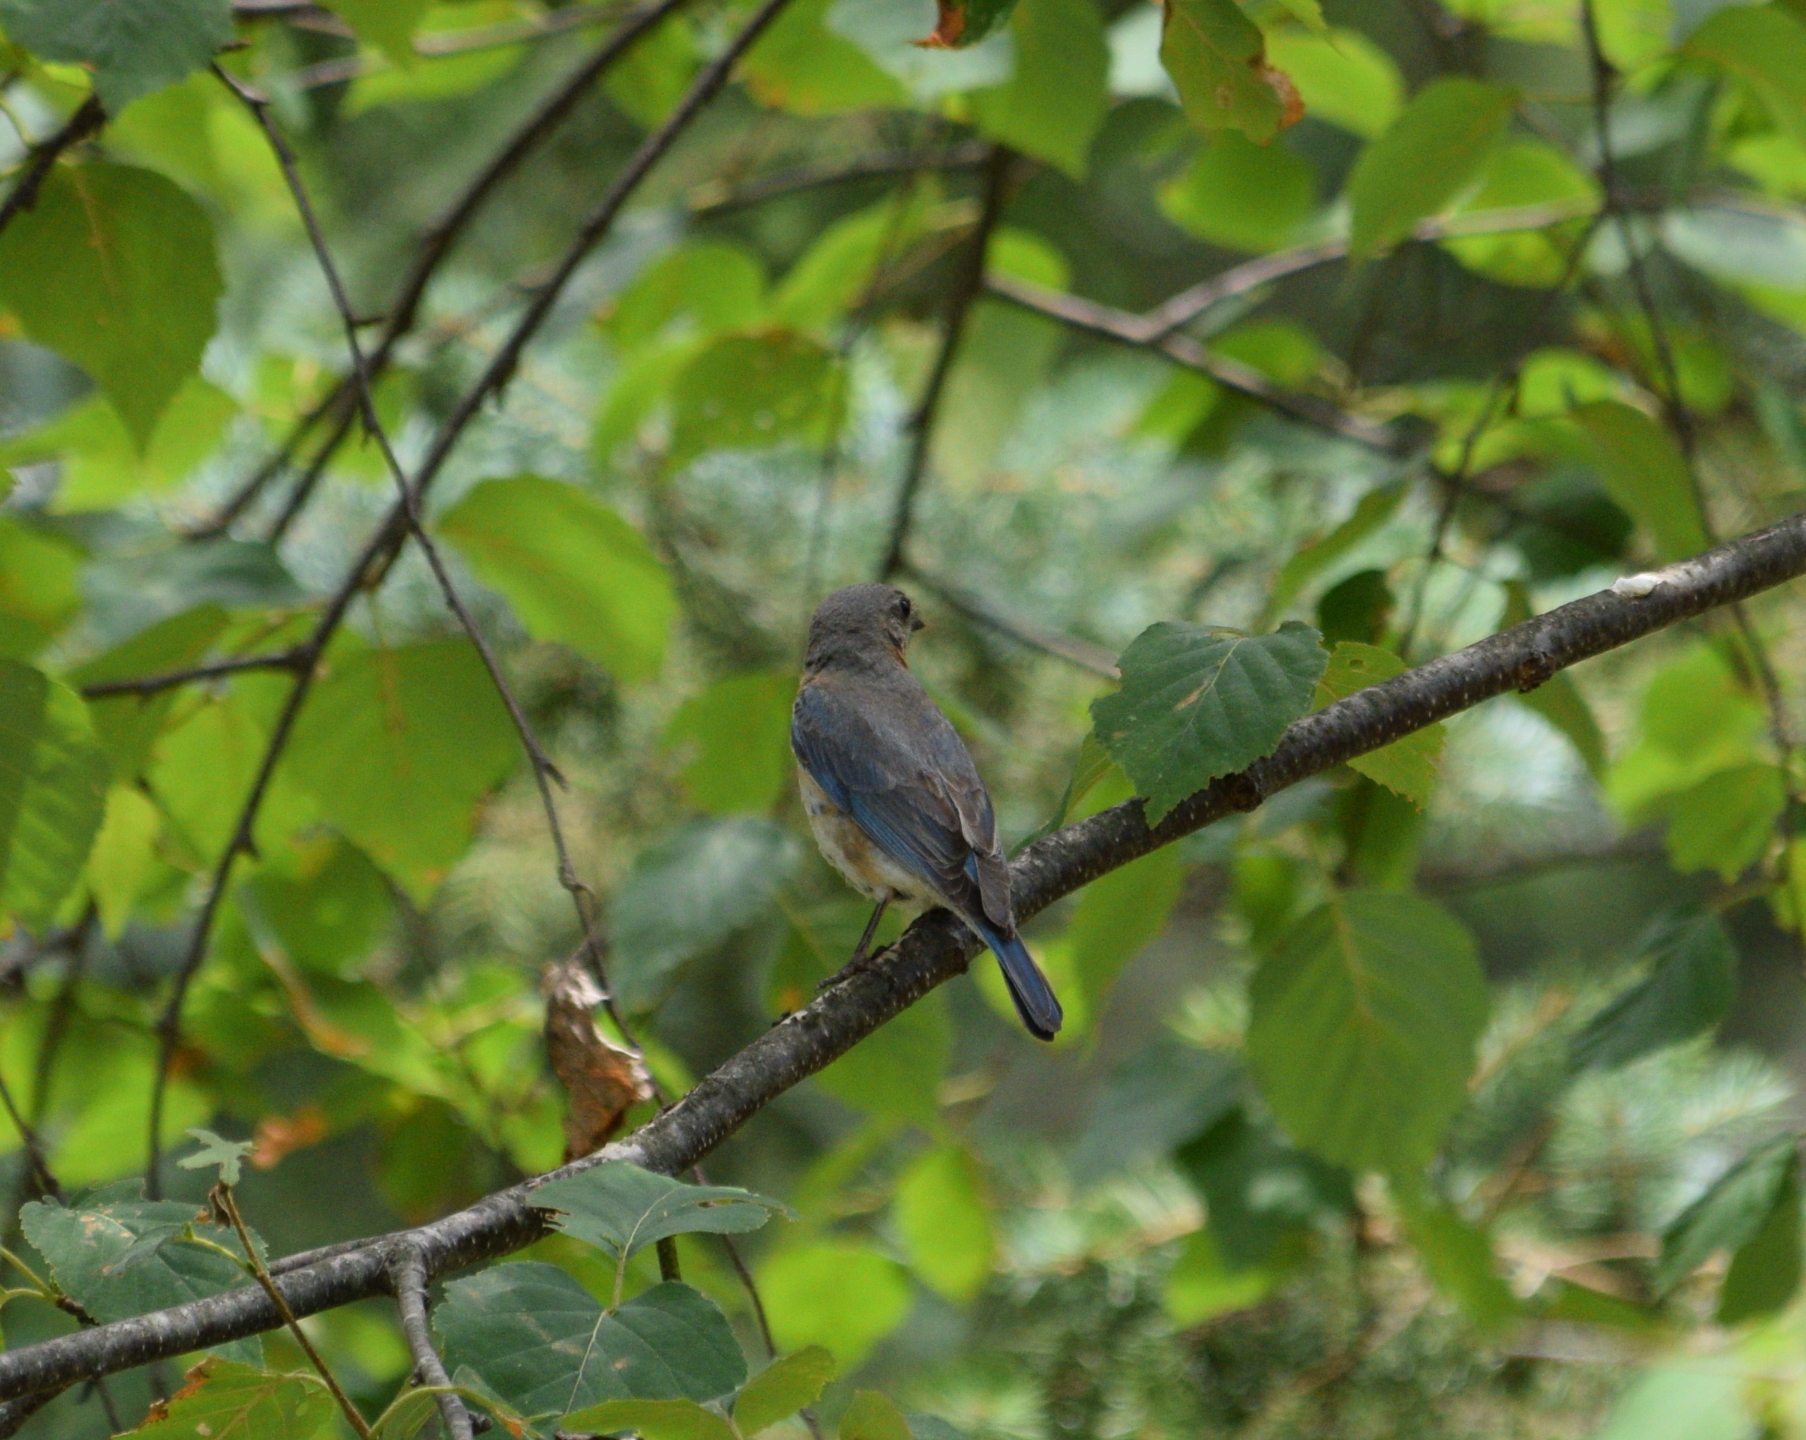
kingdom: Animalia
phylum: Chordata
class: Aves
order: Passeriformes
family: Turdidae
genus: Sialia
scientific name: Sialia sialis
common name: Eastern bluebird
